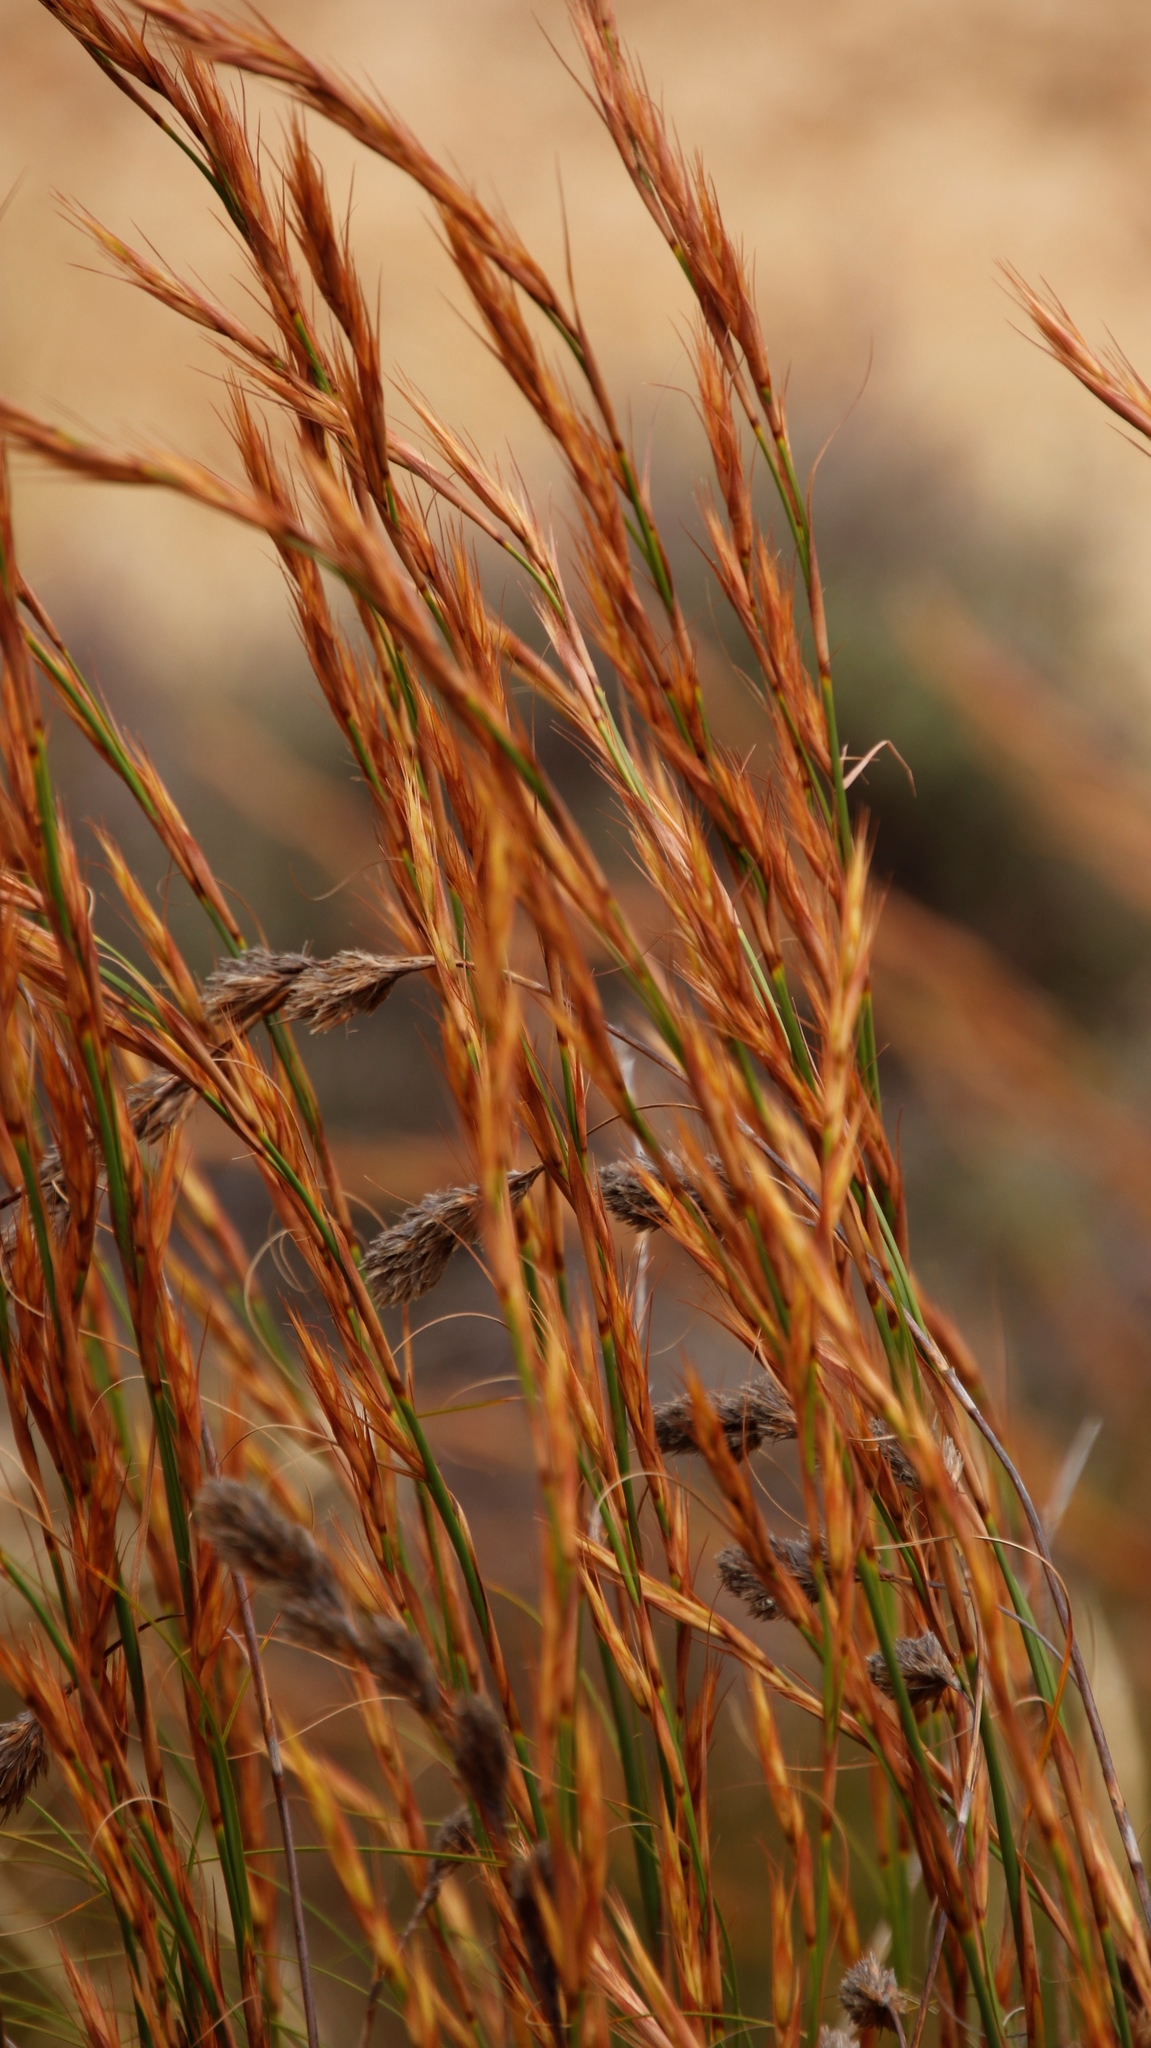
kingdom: Plantae
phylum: Tracheophyta
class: Liliopsida
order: Poales
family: Cyperaceae
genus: Tetraria
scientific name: Tetraria bromoides
